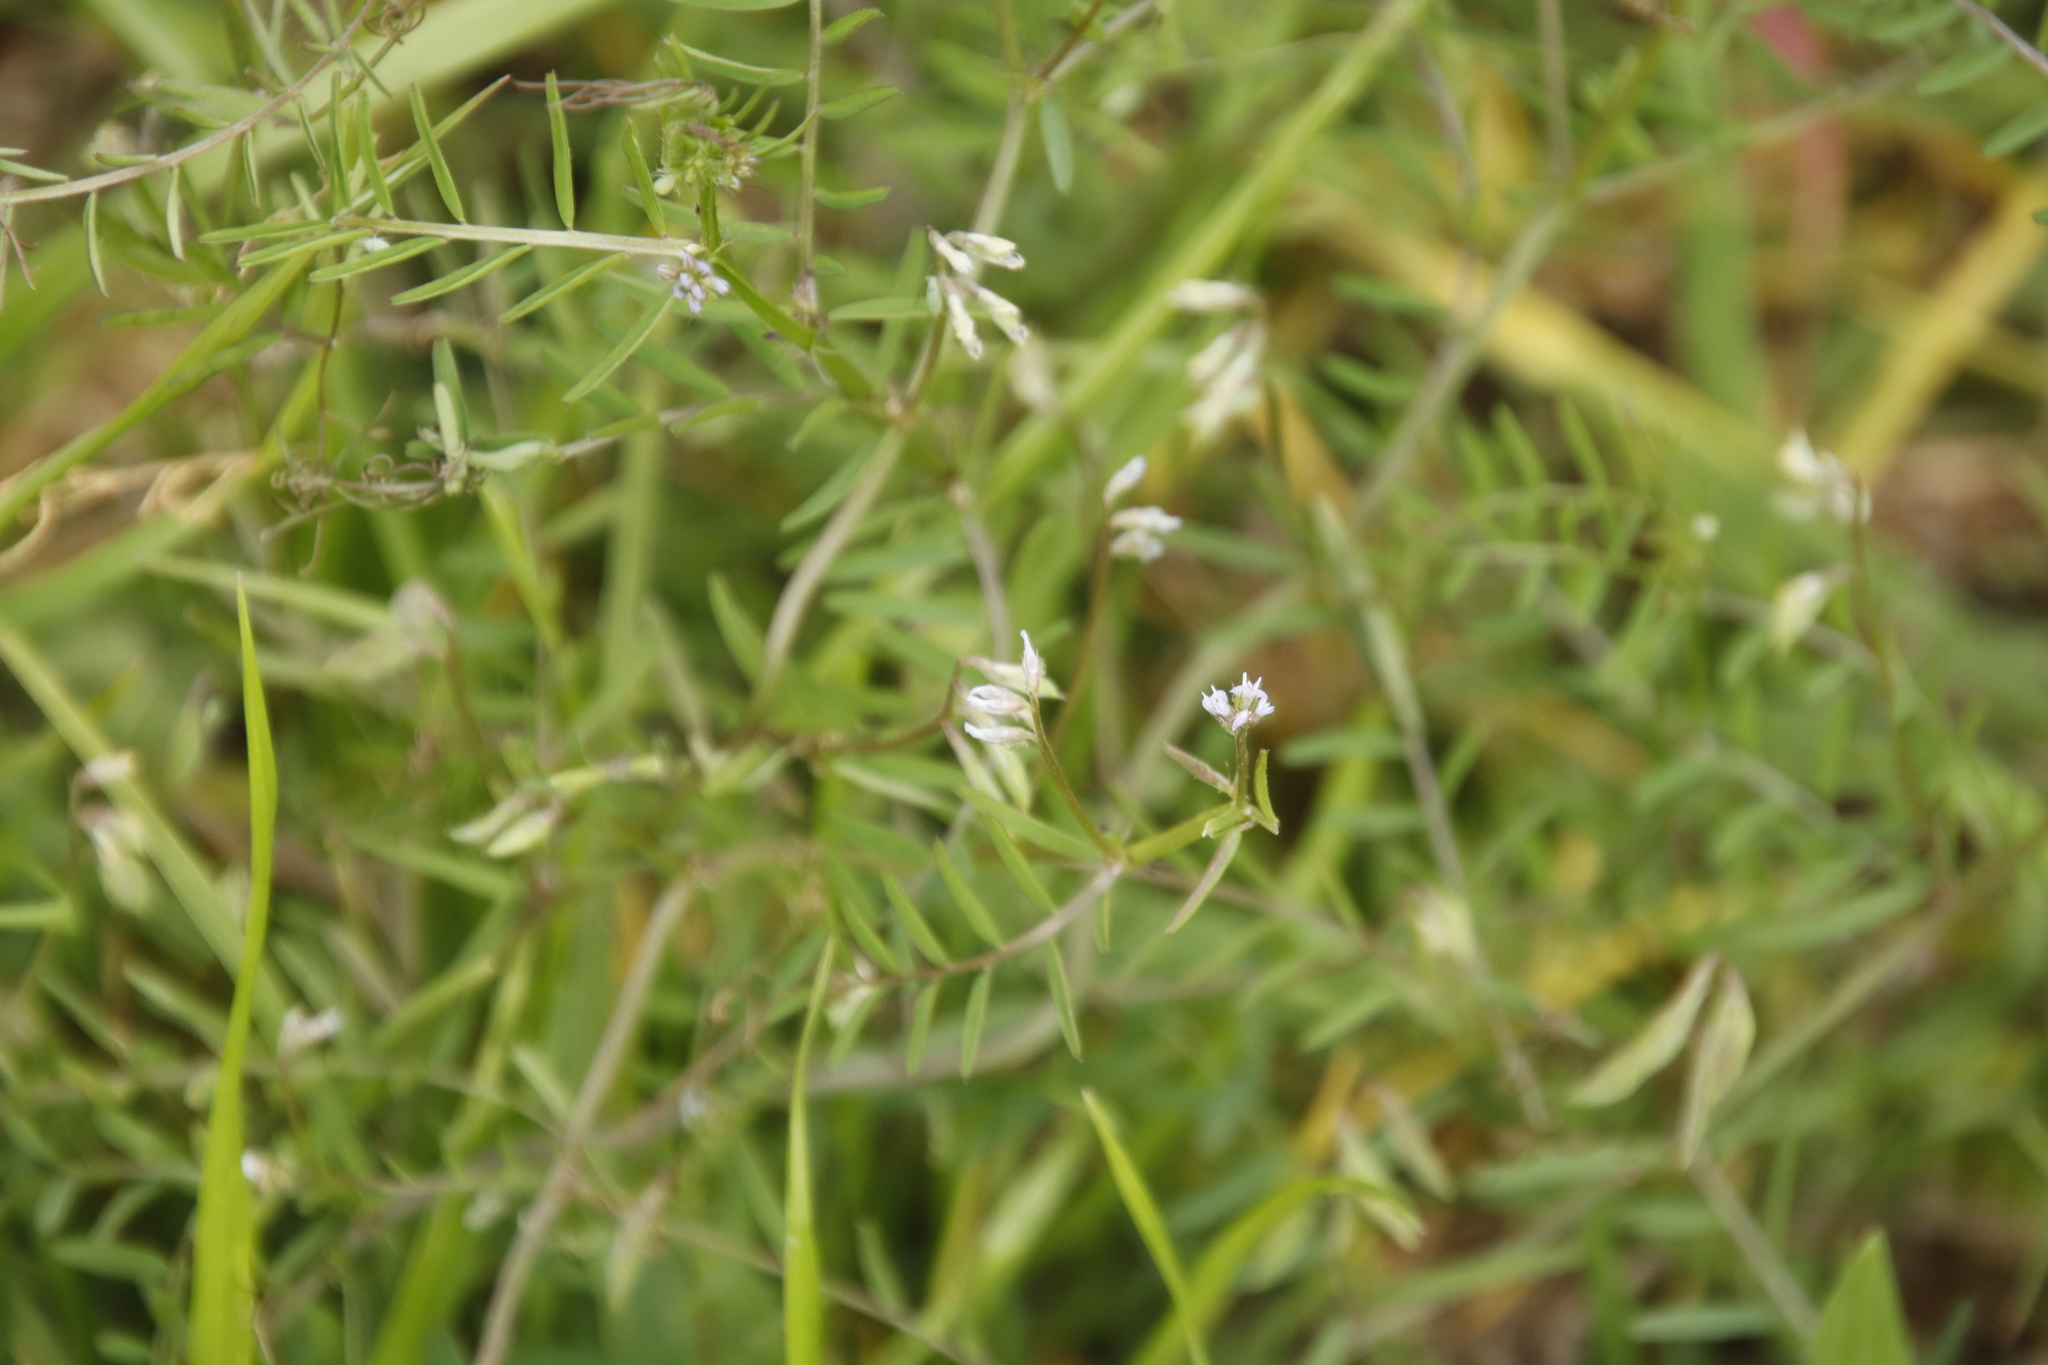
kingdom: Plantae
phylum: Tracheophyta
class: Magnoliopsida
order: Fabales
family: Fabaceae
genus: Vicia
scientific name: Vicia hirsuta
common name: Tiny vetch
